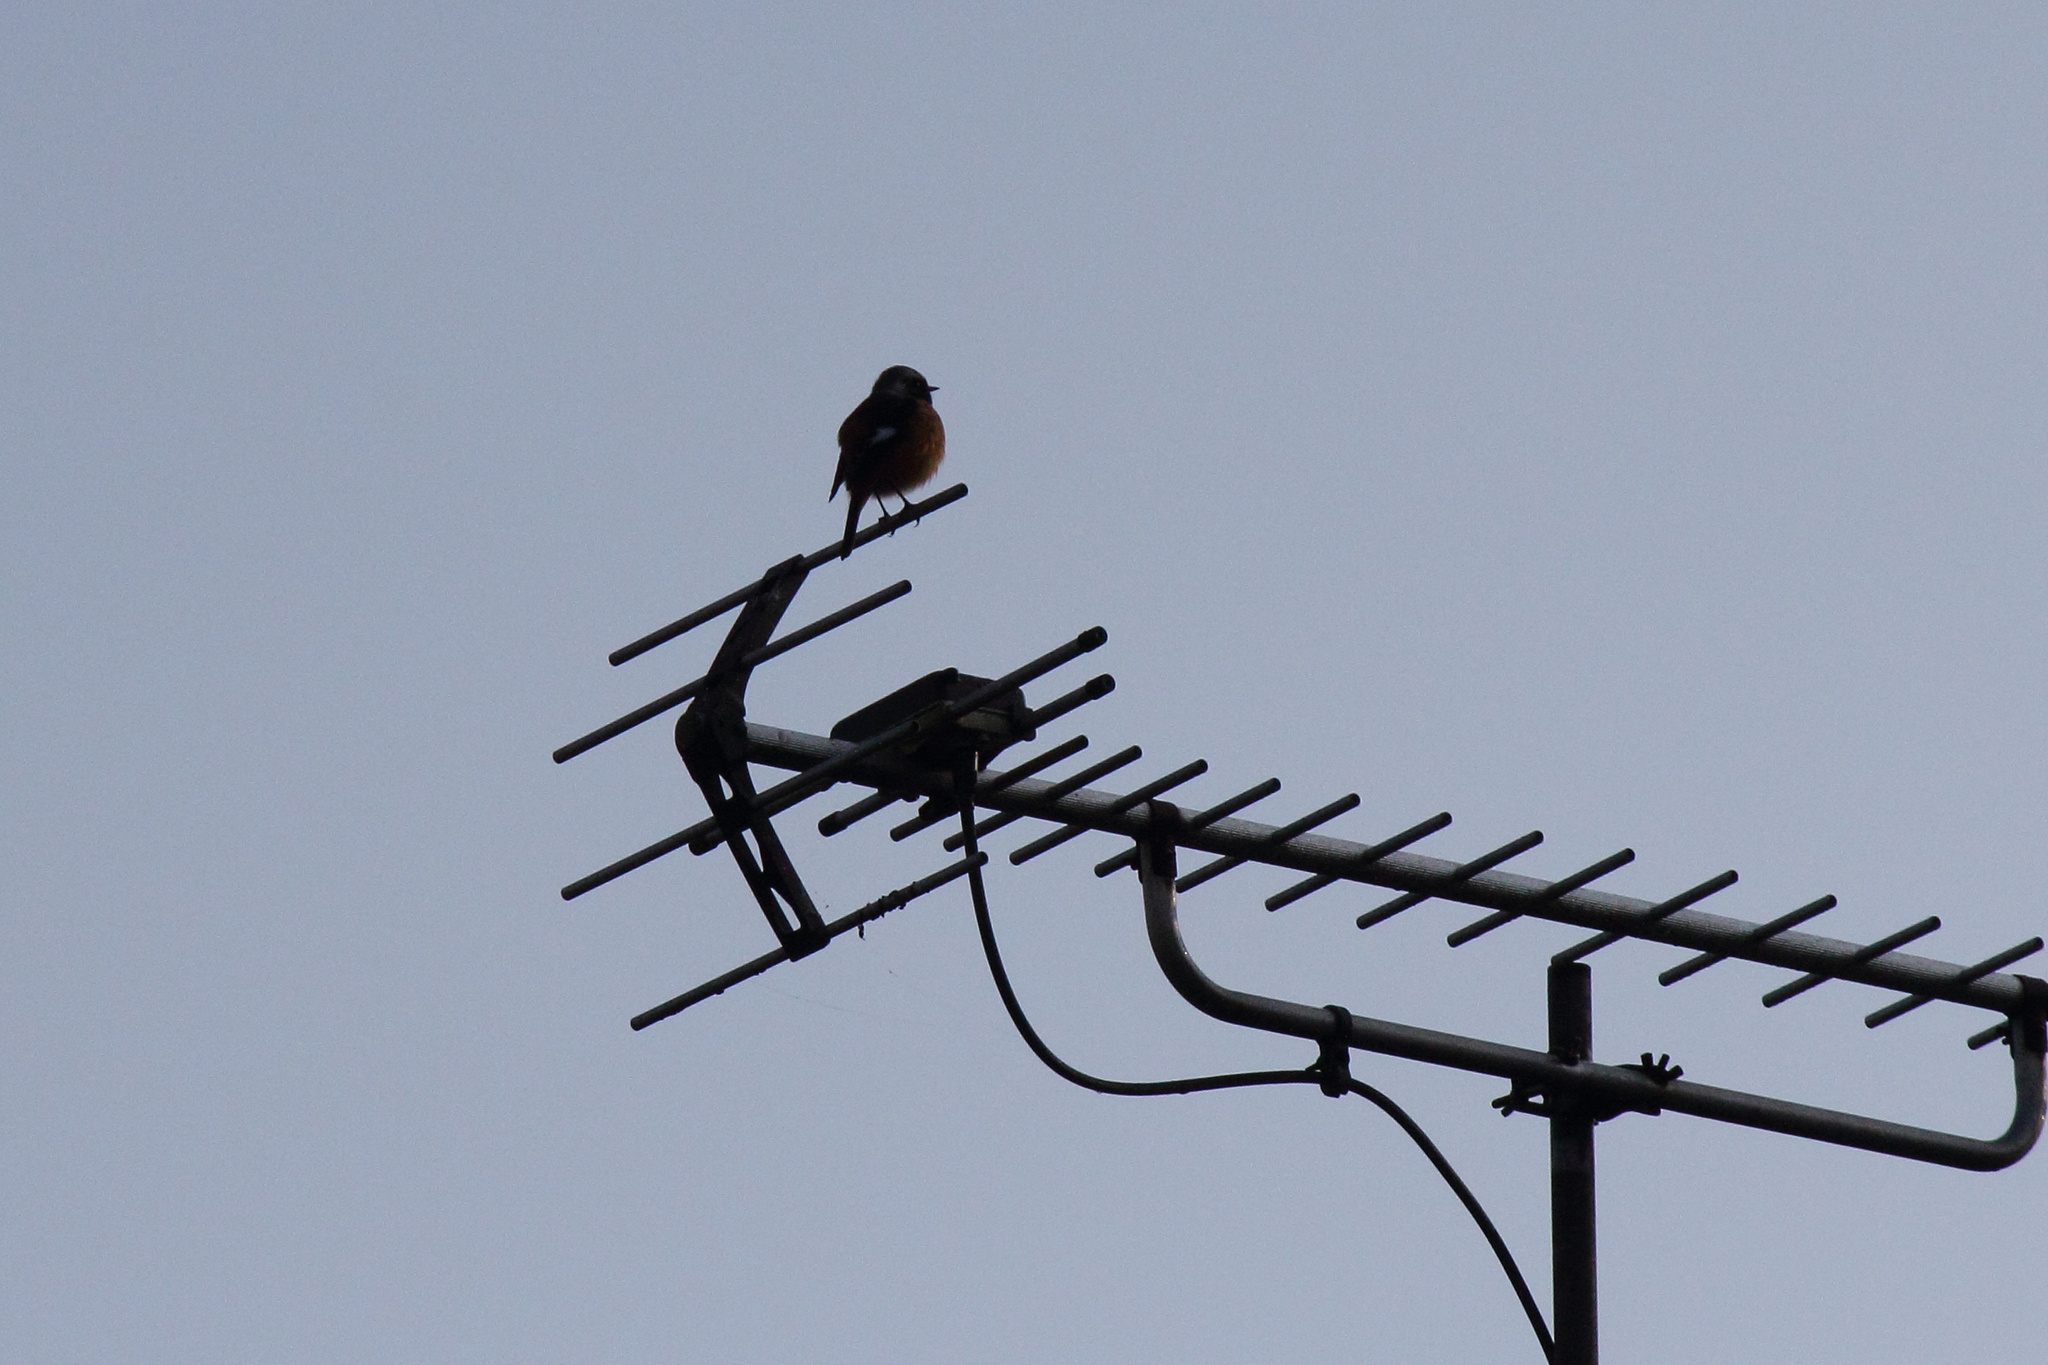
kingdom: Animalia
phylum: Chordata
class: Aves
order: Passeriformes
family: Muscicapidae
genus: Phoenicurus
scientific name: Phoenicurus auroreus
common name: Daurian redstart
